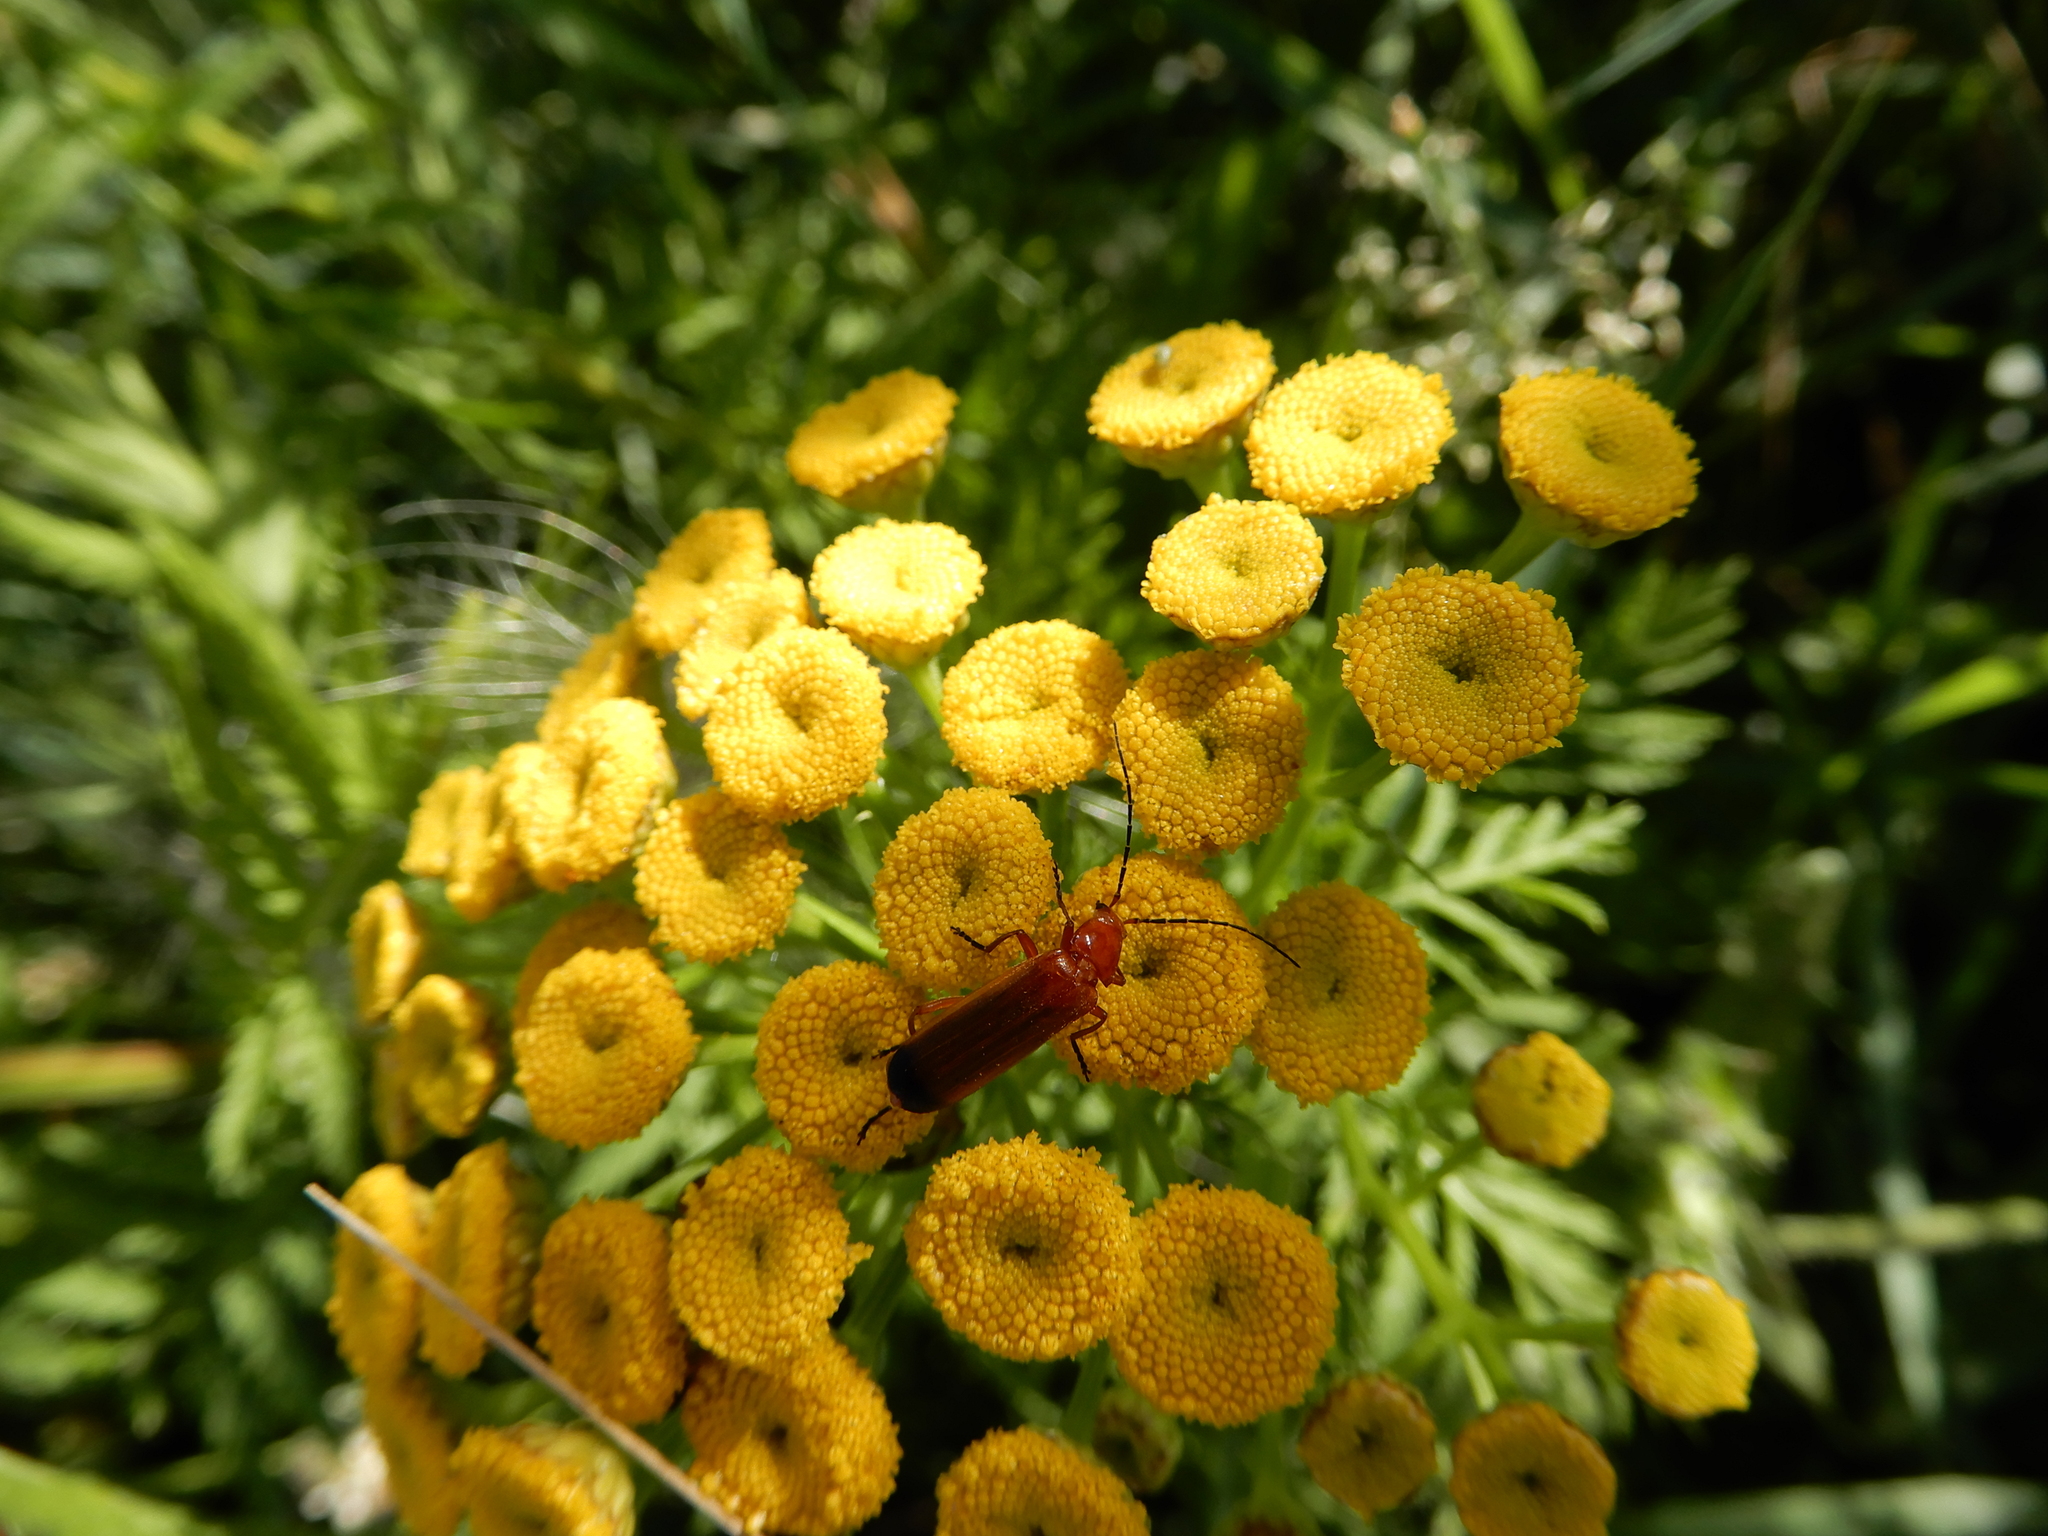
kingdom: Animalia
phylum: Arthropoda
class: Insecta
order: Coleoptera
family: Cantharidae
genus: Rhagonycha
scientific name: Rhagonycha fulva
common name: Common red soldier beetle
